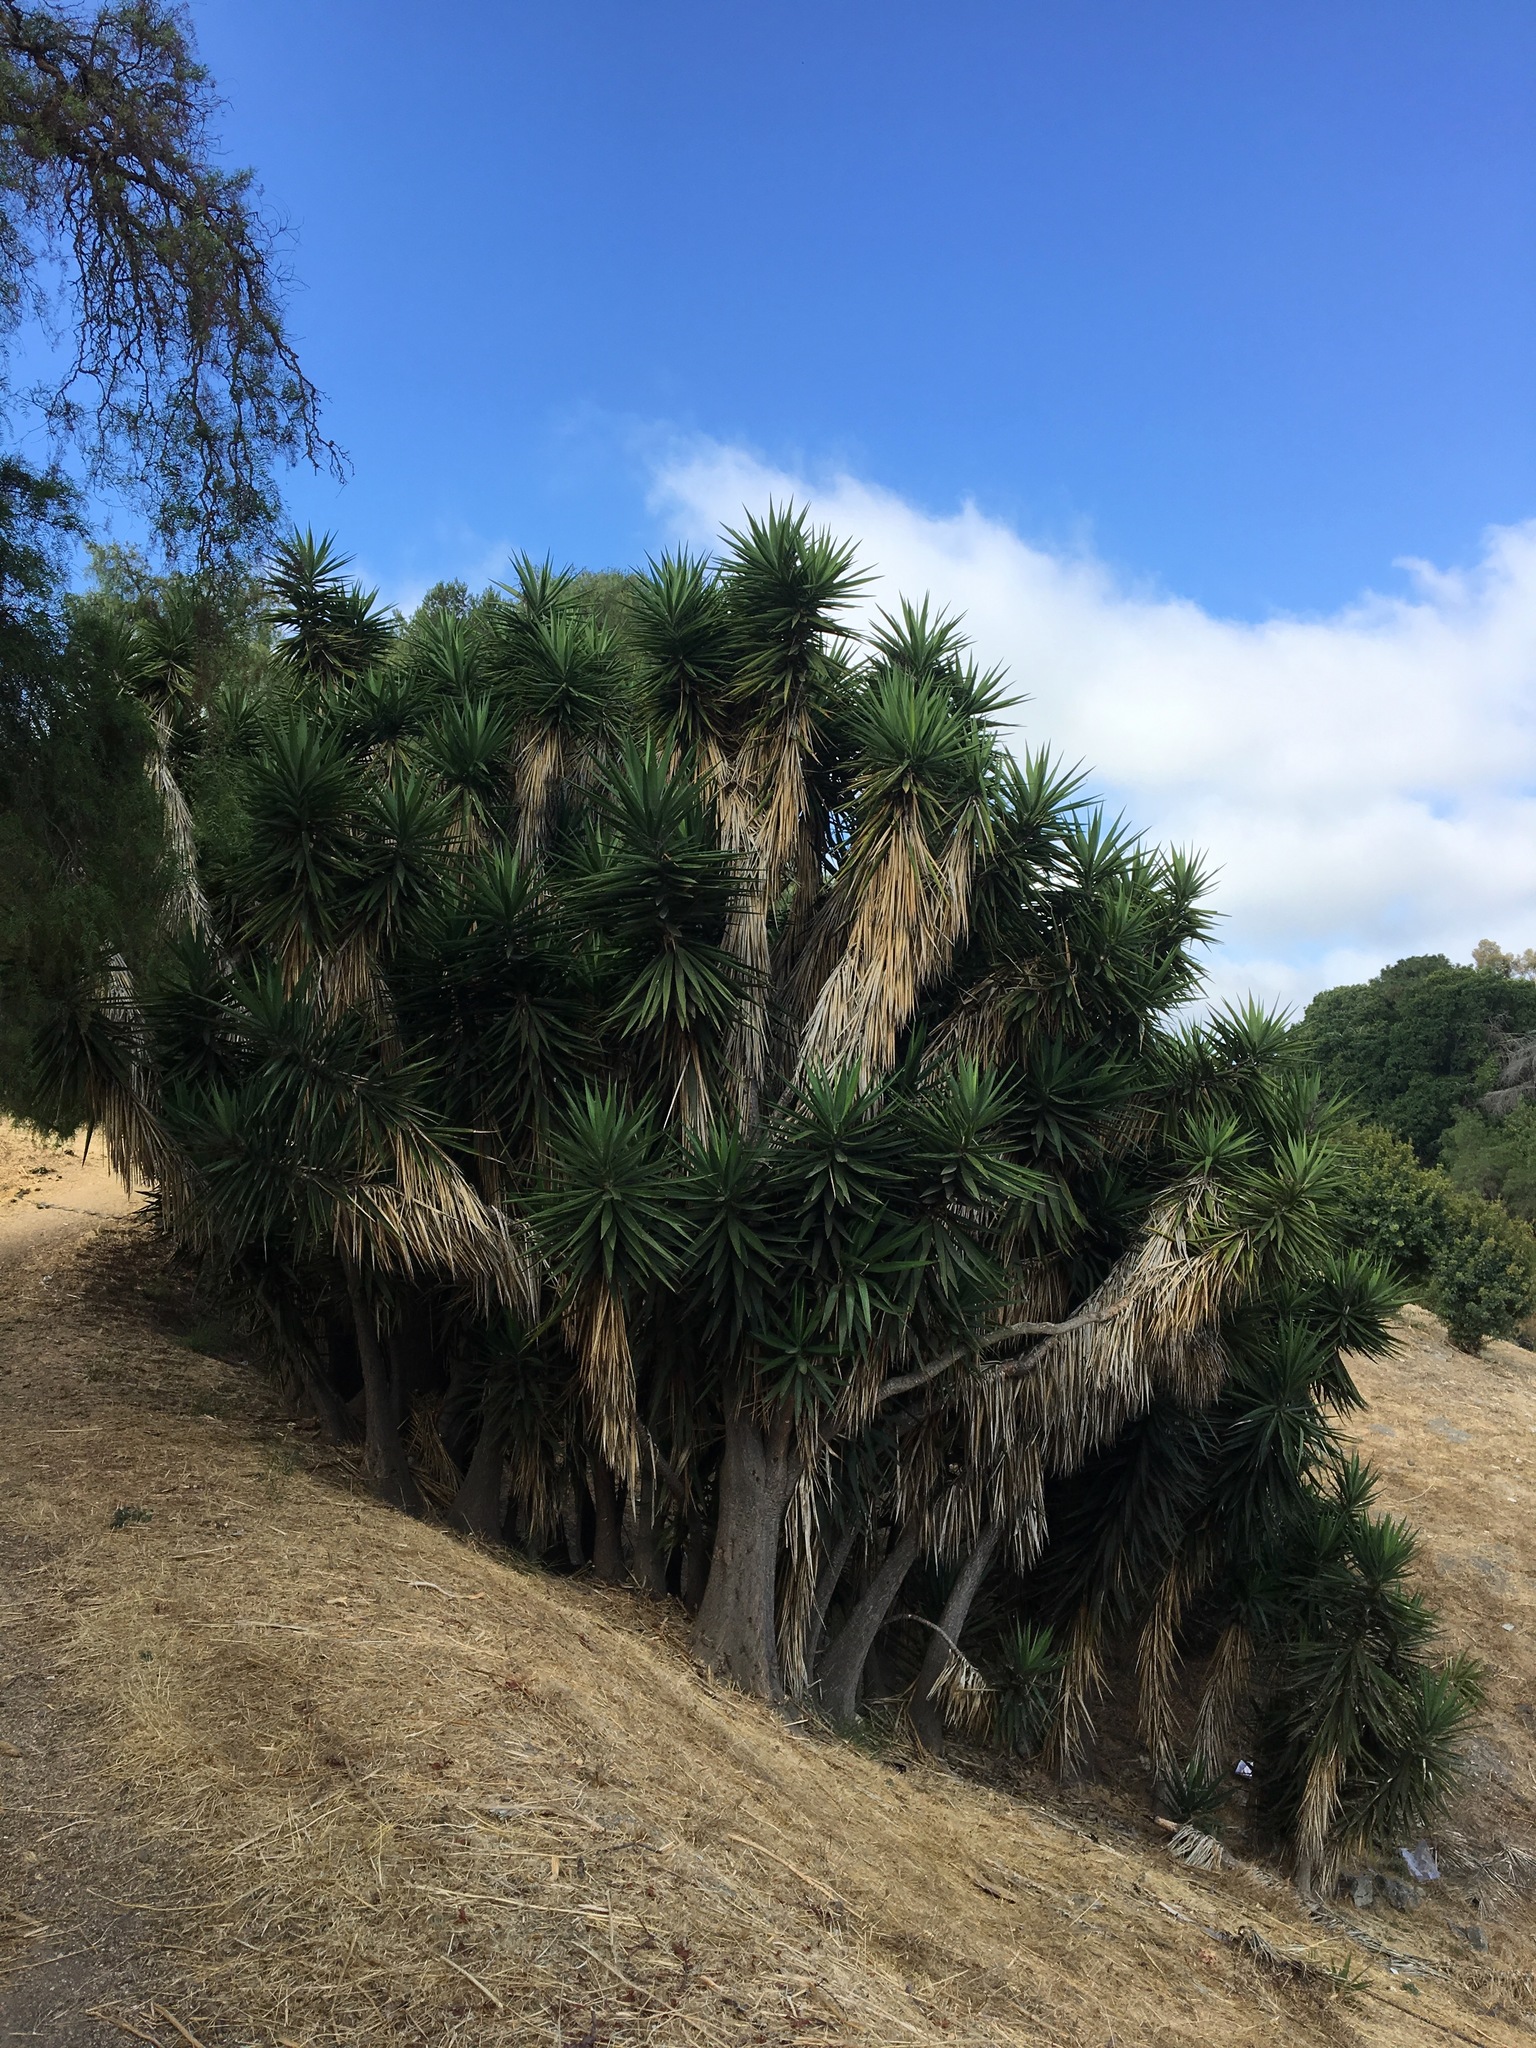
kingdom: Plantae
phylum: Tracheophyta
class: Liliopsida
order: Asparagales
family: Asparagaceae
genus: Yucca
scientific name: Yucca gigantea
